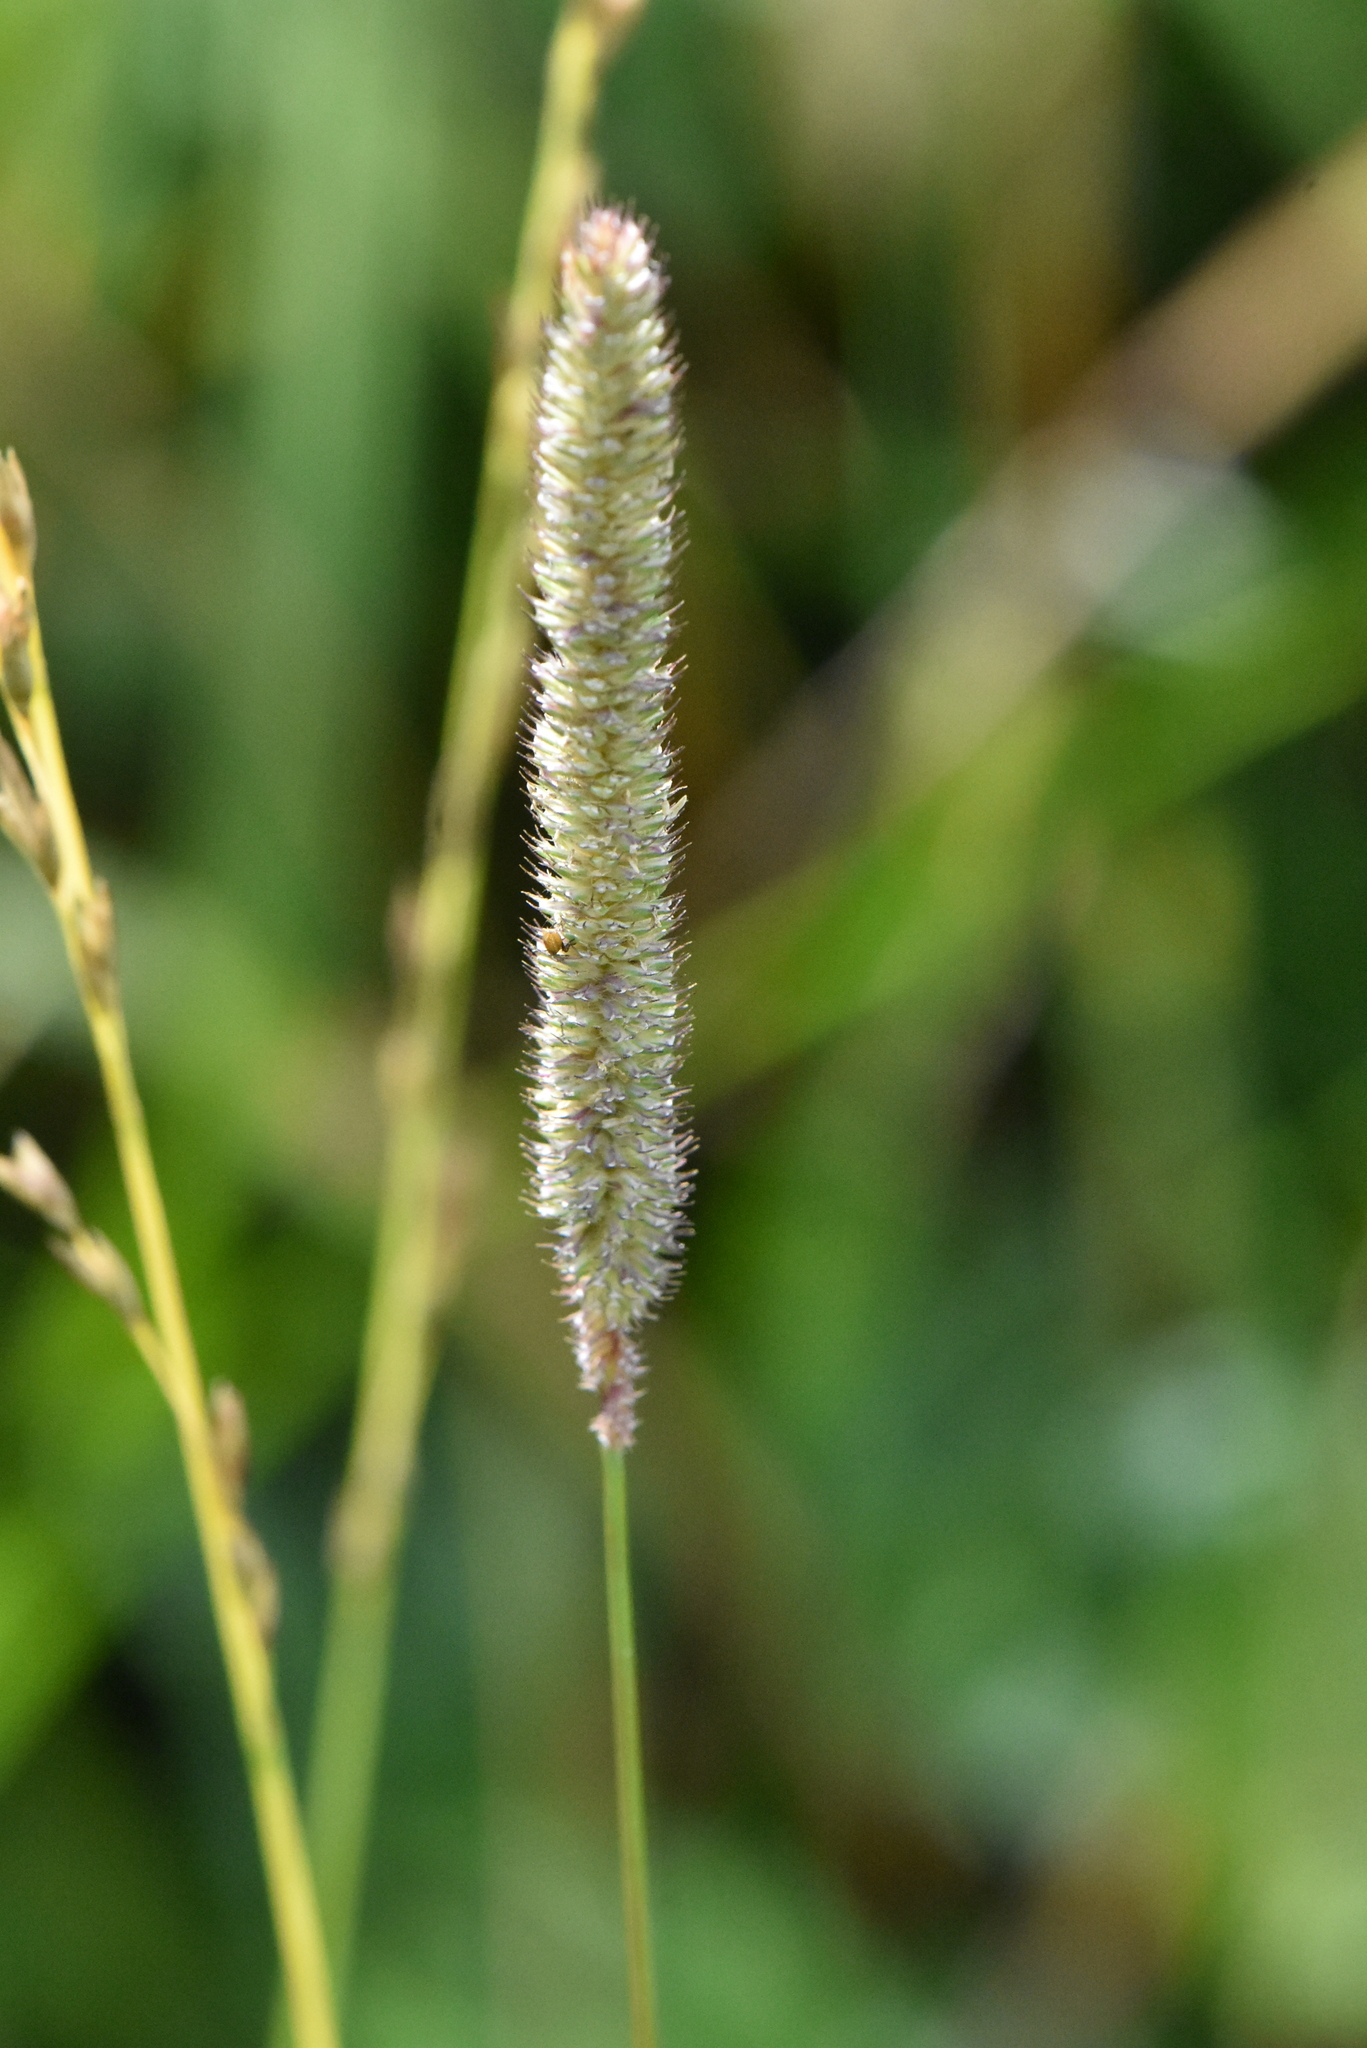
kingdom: Plantae
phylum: Tracheophyta
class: Liliopsida
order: Poales
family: Poaceae
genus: Phleum
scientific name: Phleum pratense
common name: Timothy grass
